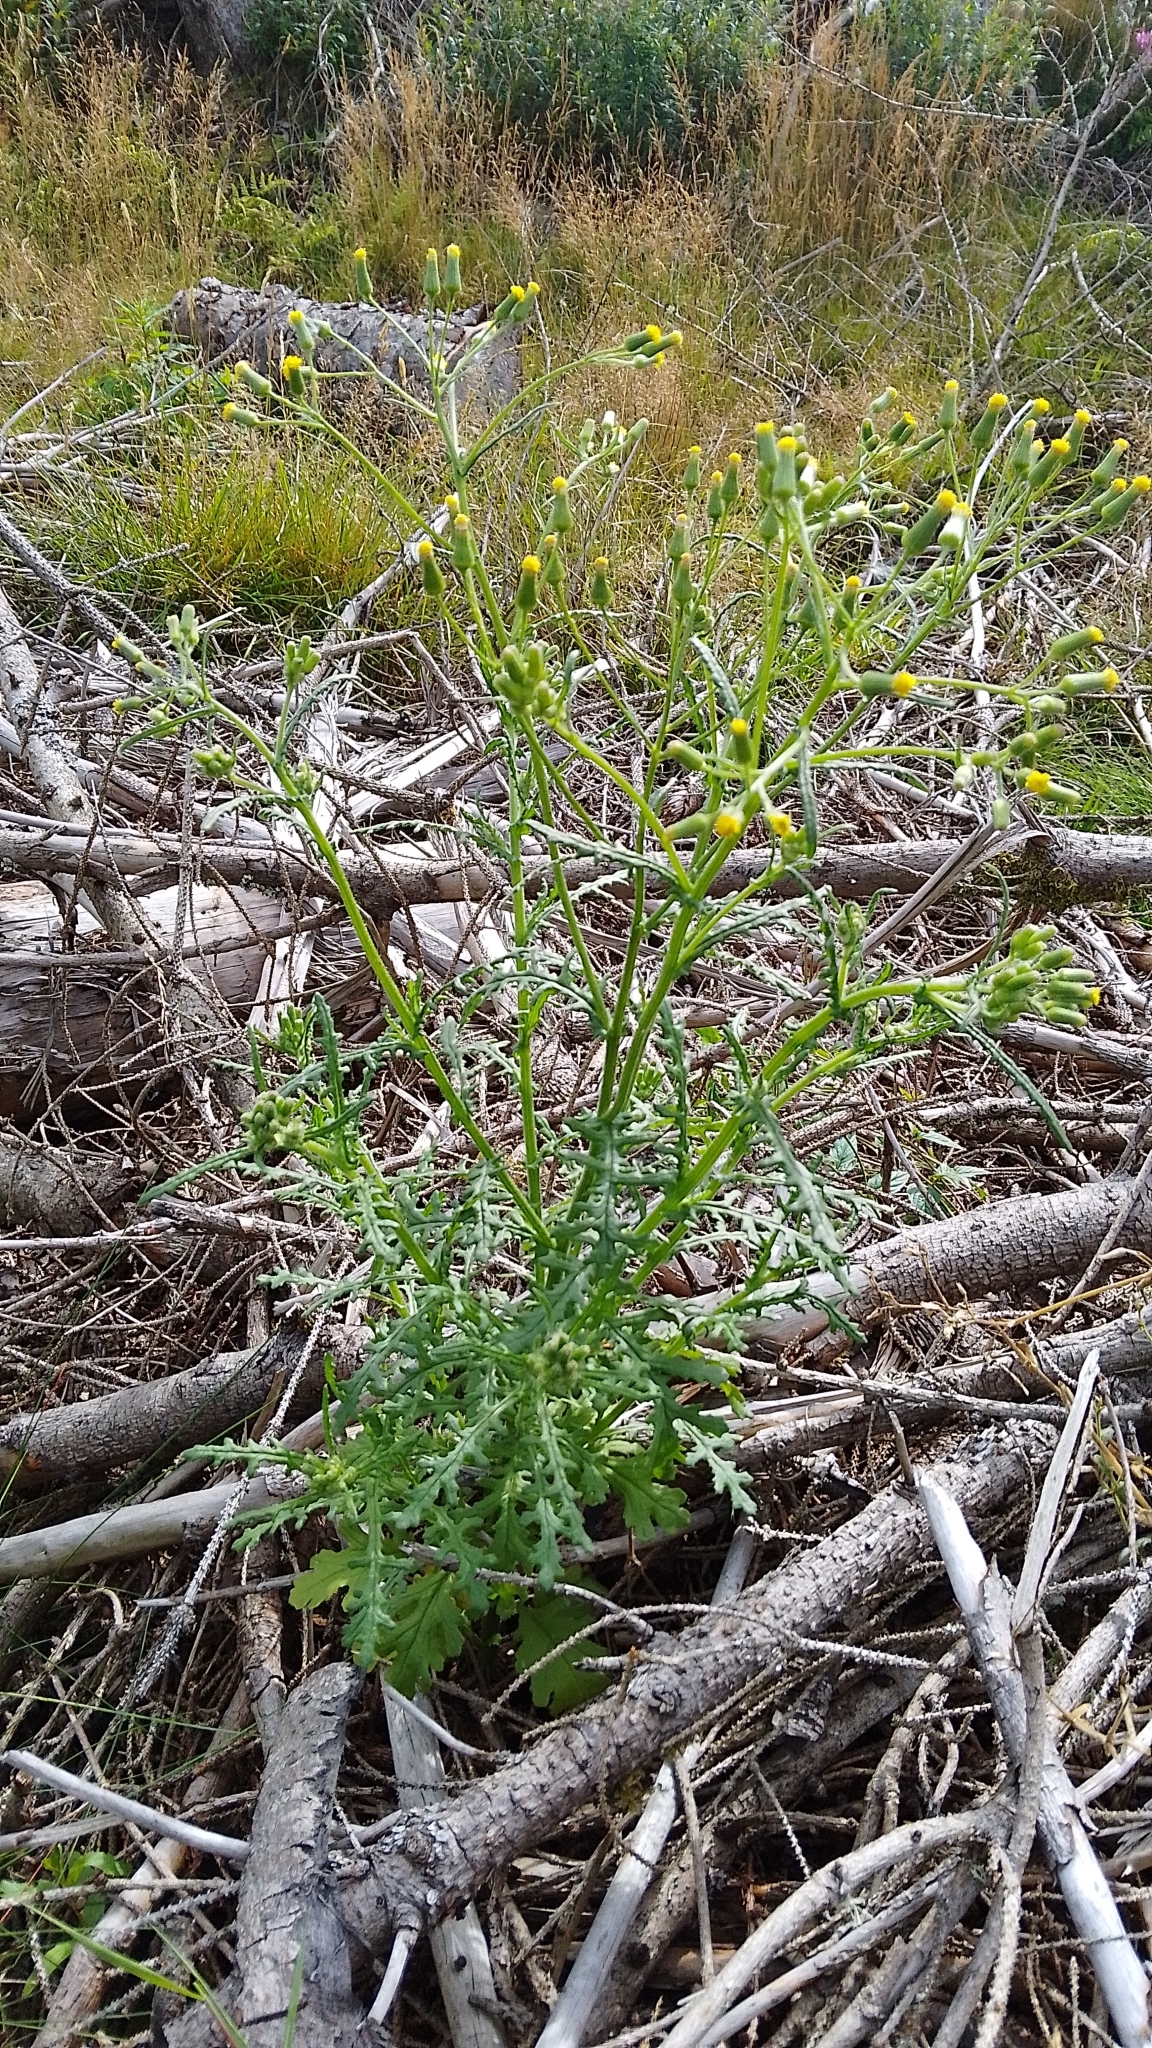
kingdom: Plantae
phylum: Tracheophyta
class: Magnoliopsida
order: Asterales
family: Asteraceae
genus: Senecio
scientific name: Senecio sylvaticus
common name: Woodland ragwort
